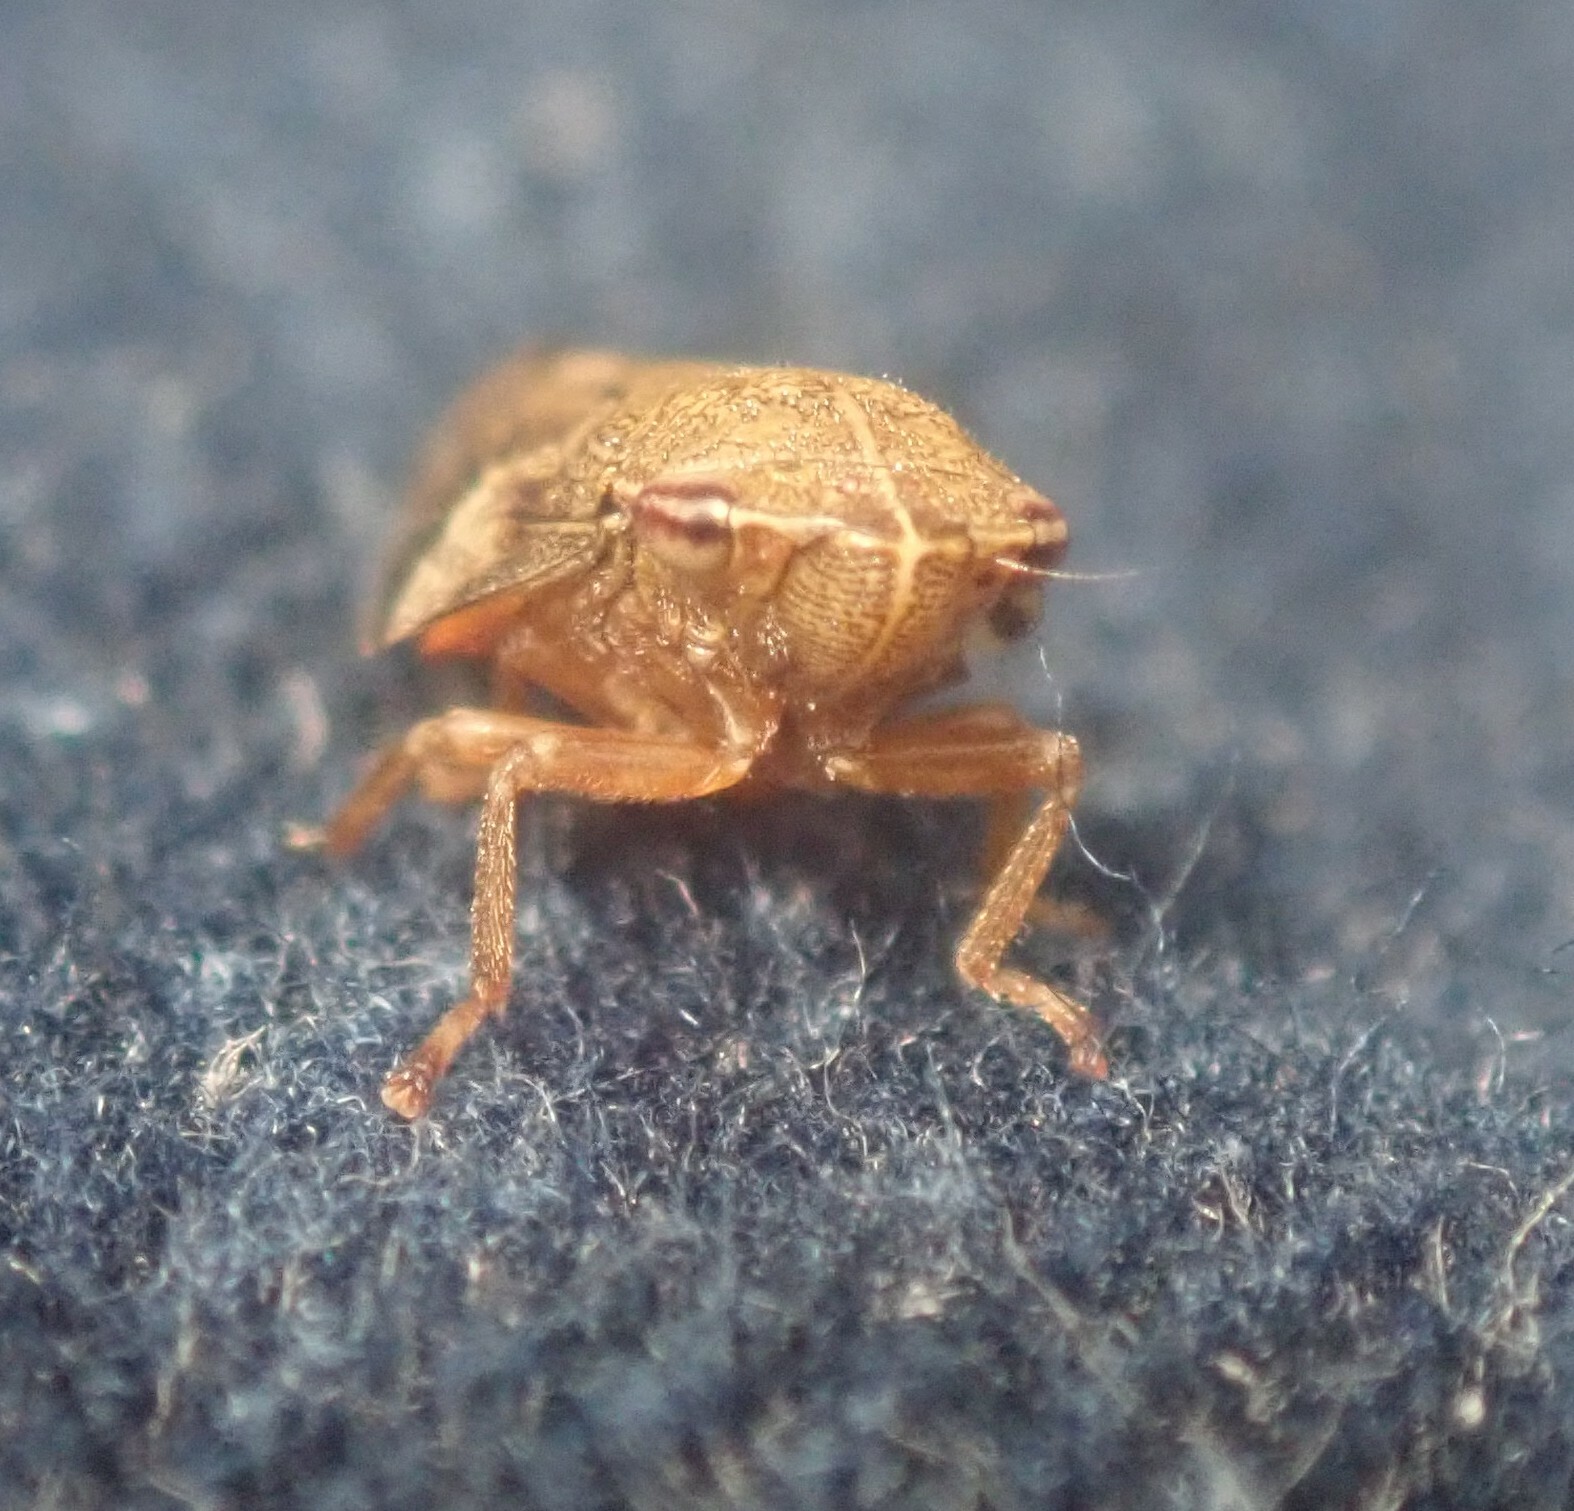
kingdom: Animalia
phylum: Arthropoda
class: Insecta
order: Hemiptera
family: Aphrophoridae
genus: Aphrophora
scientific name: Aphrophora alni
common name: European alder spittlebug
